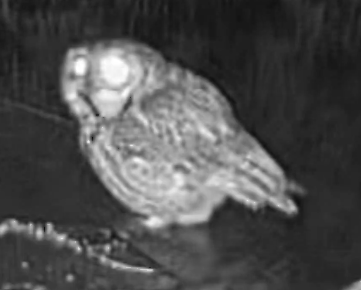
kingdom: Animalia
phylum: Chordata
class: Aves
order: Strigiformes
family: Strigidae
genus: Megascops
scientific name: Megascops asio
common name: Eastern screech-owl
